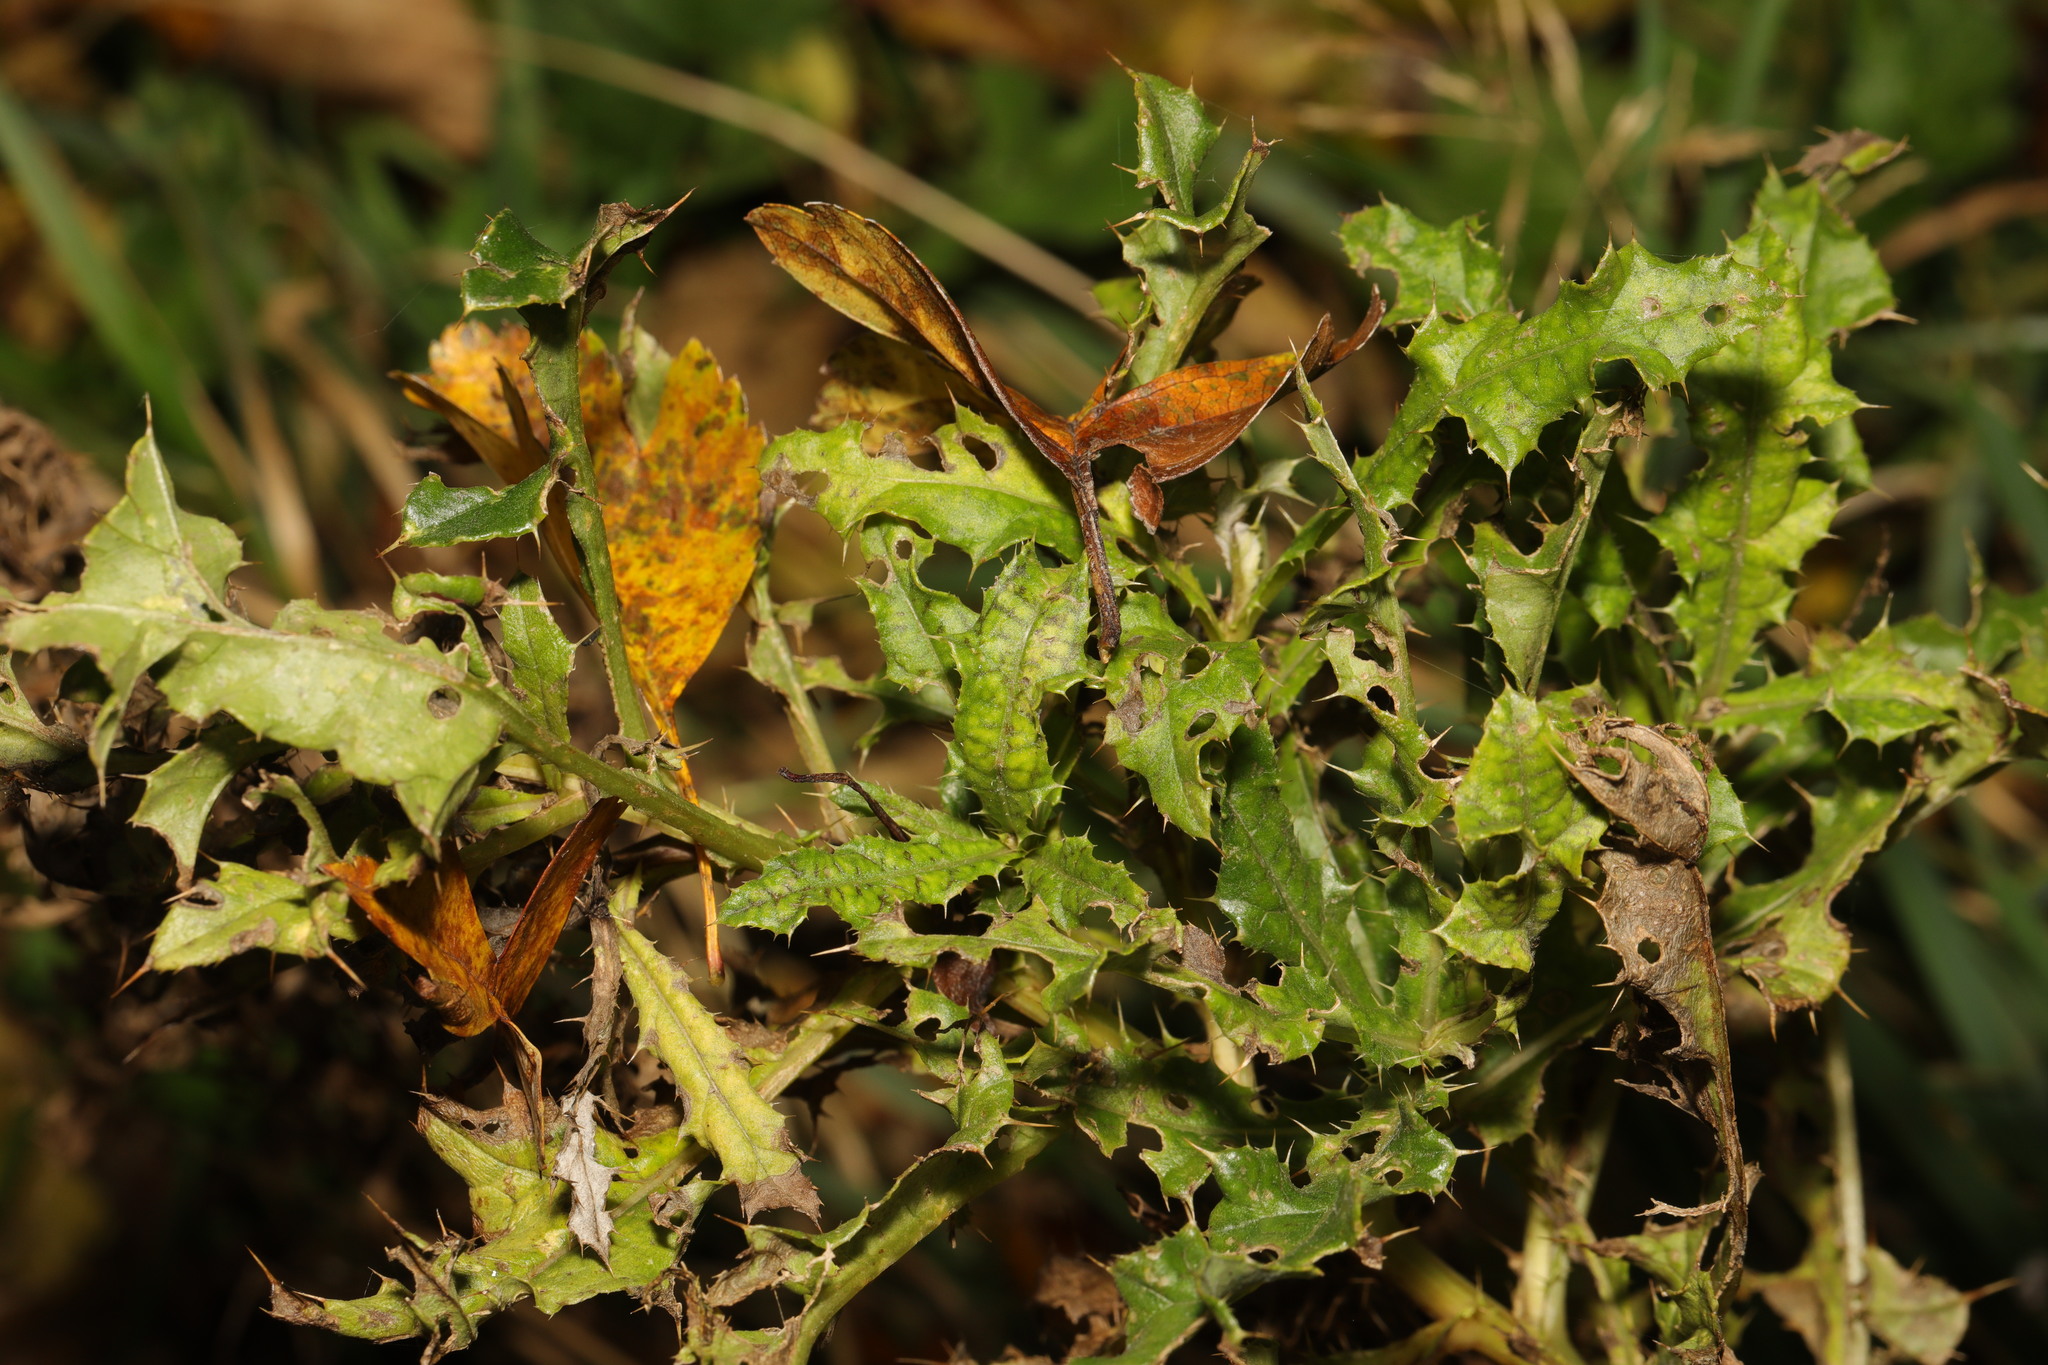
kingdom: Plantae
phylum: Tracheophyta
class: Magnoliopsida
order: Asterales
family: Asteraceae
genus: Cirsium
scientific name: Cirsium arvense
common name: Creeping thistle
